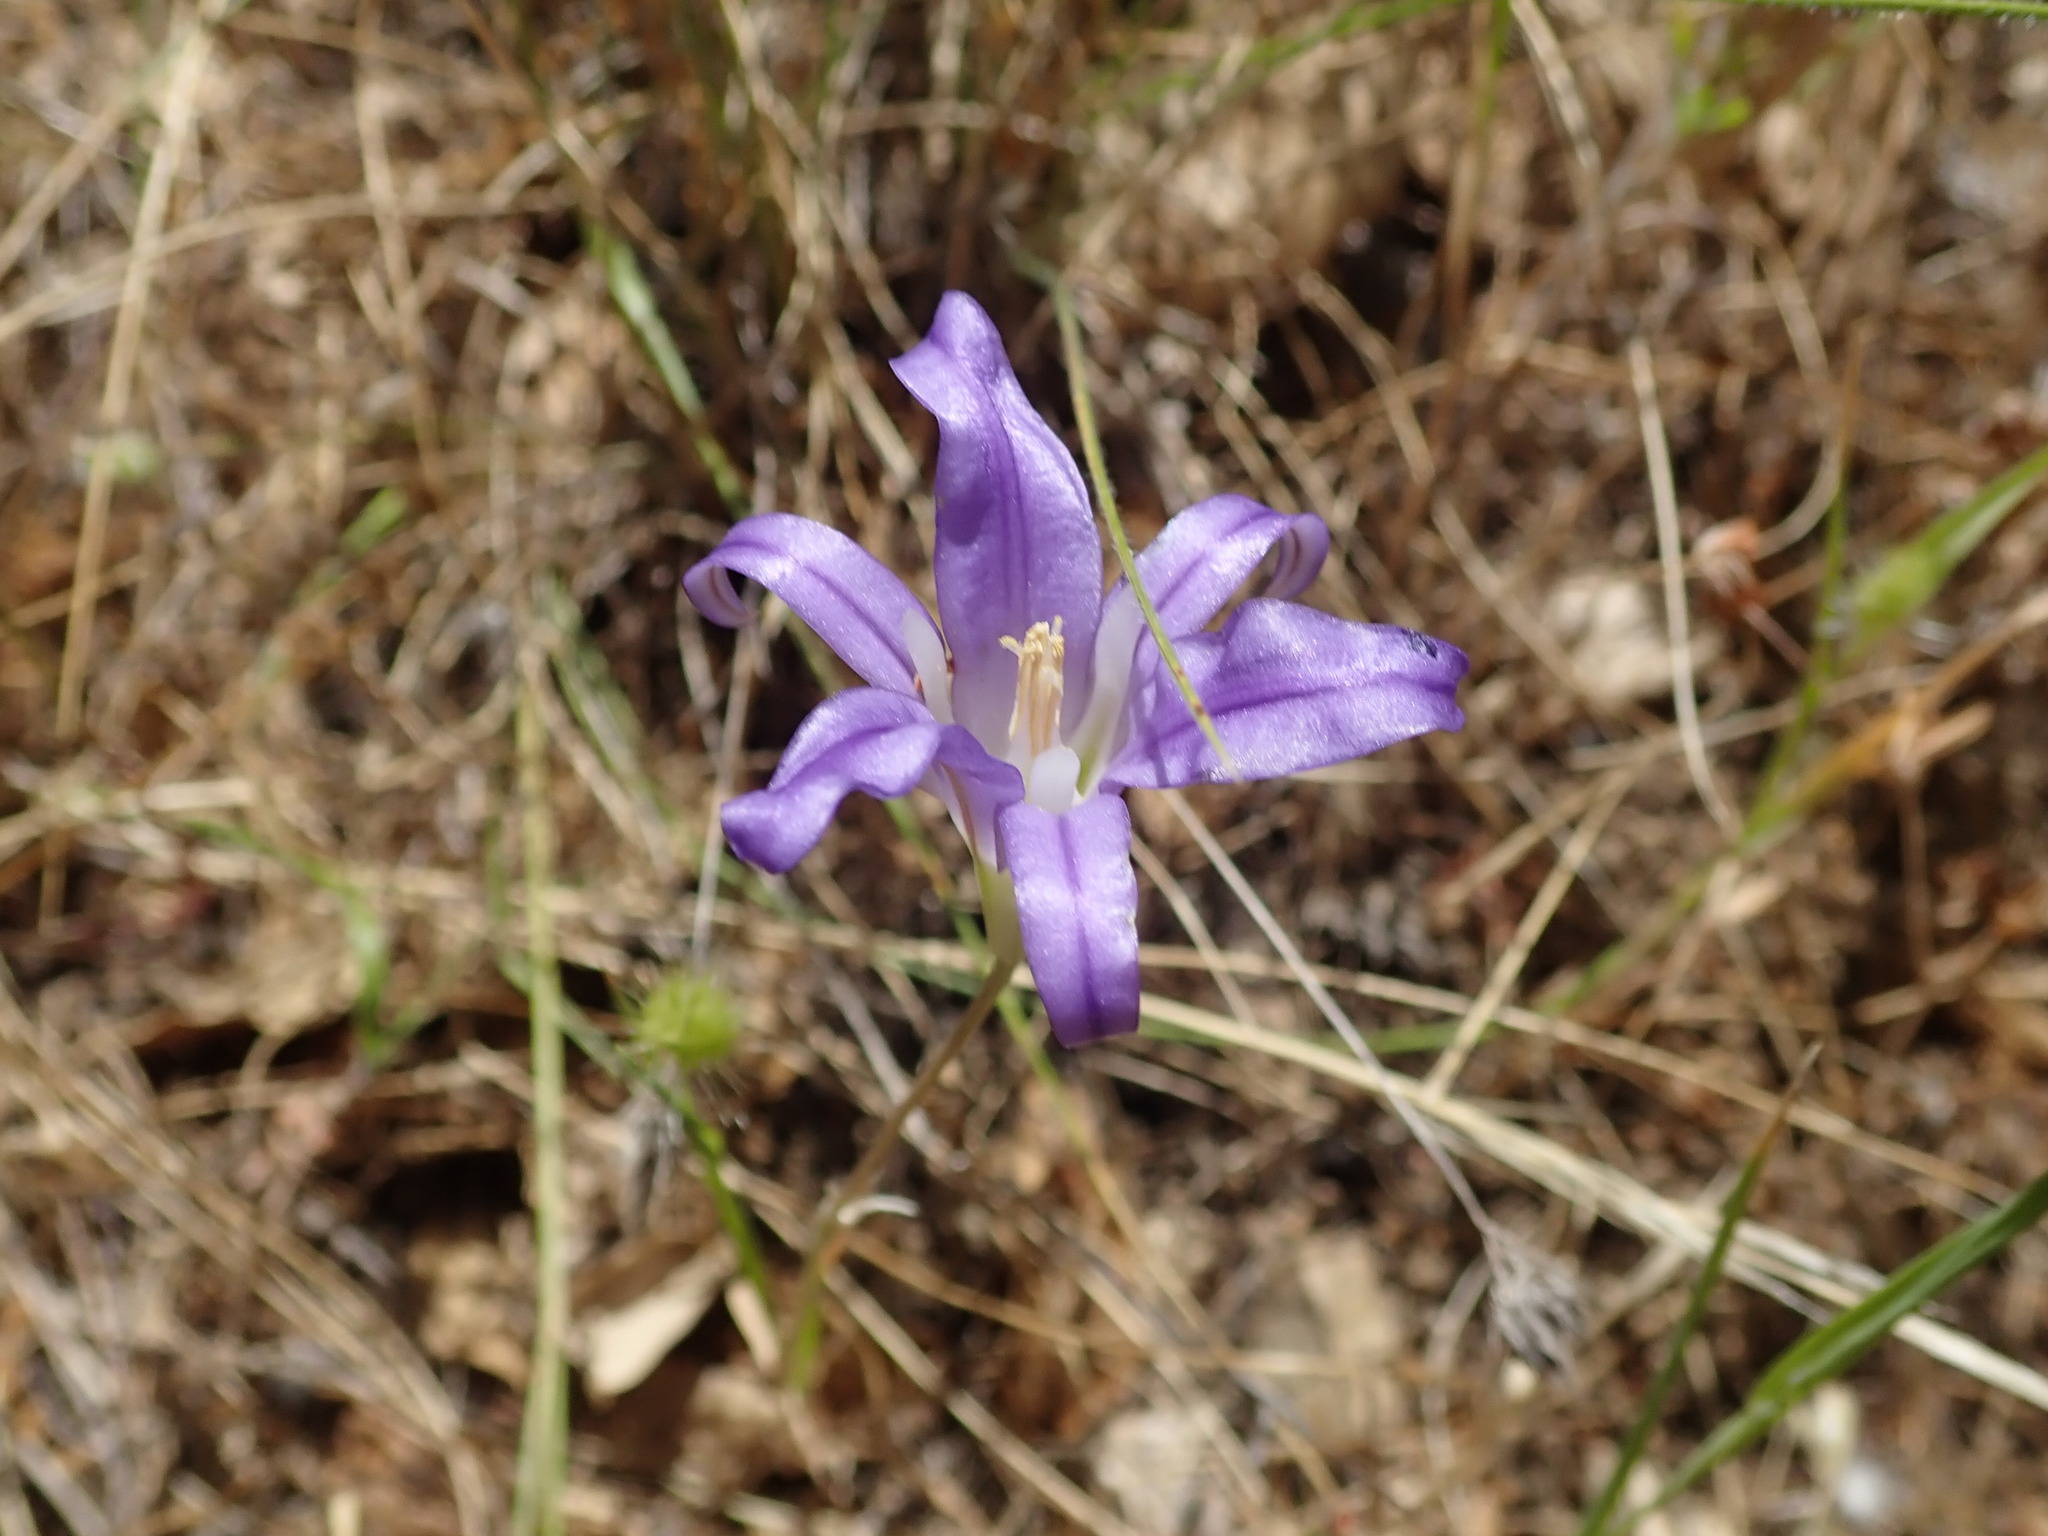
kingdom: Plantae
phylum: Tracheophyta
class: Liliopsida
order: Asparagales
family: Asparagaceae
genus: Brodiaea
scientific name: Brodiaea elegans
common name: Elegant cluster-lily
